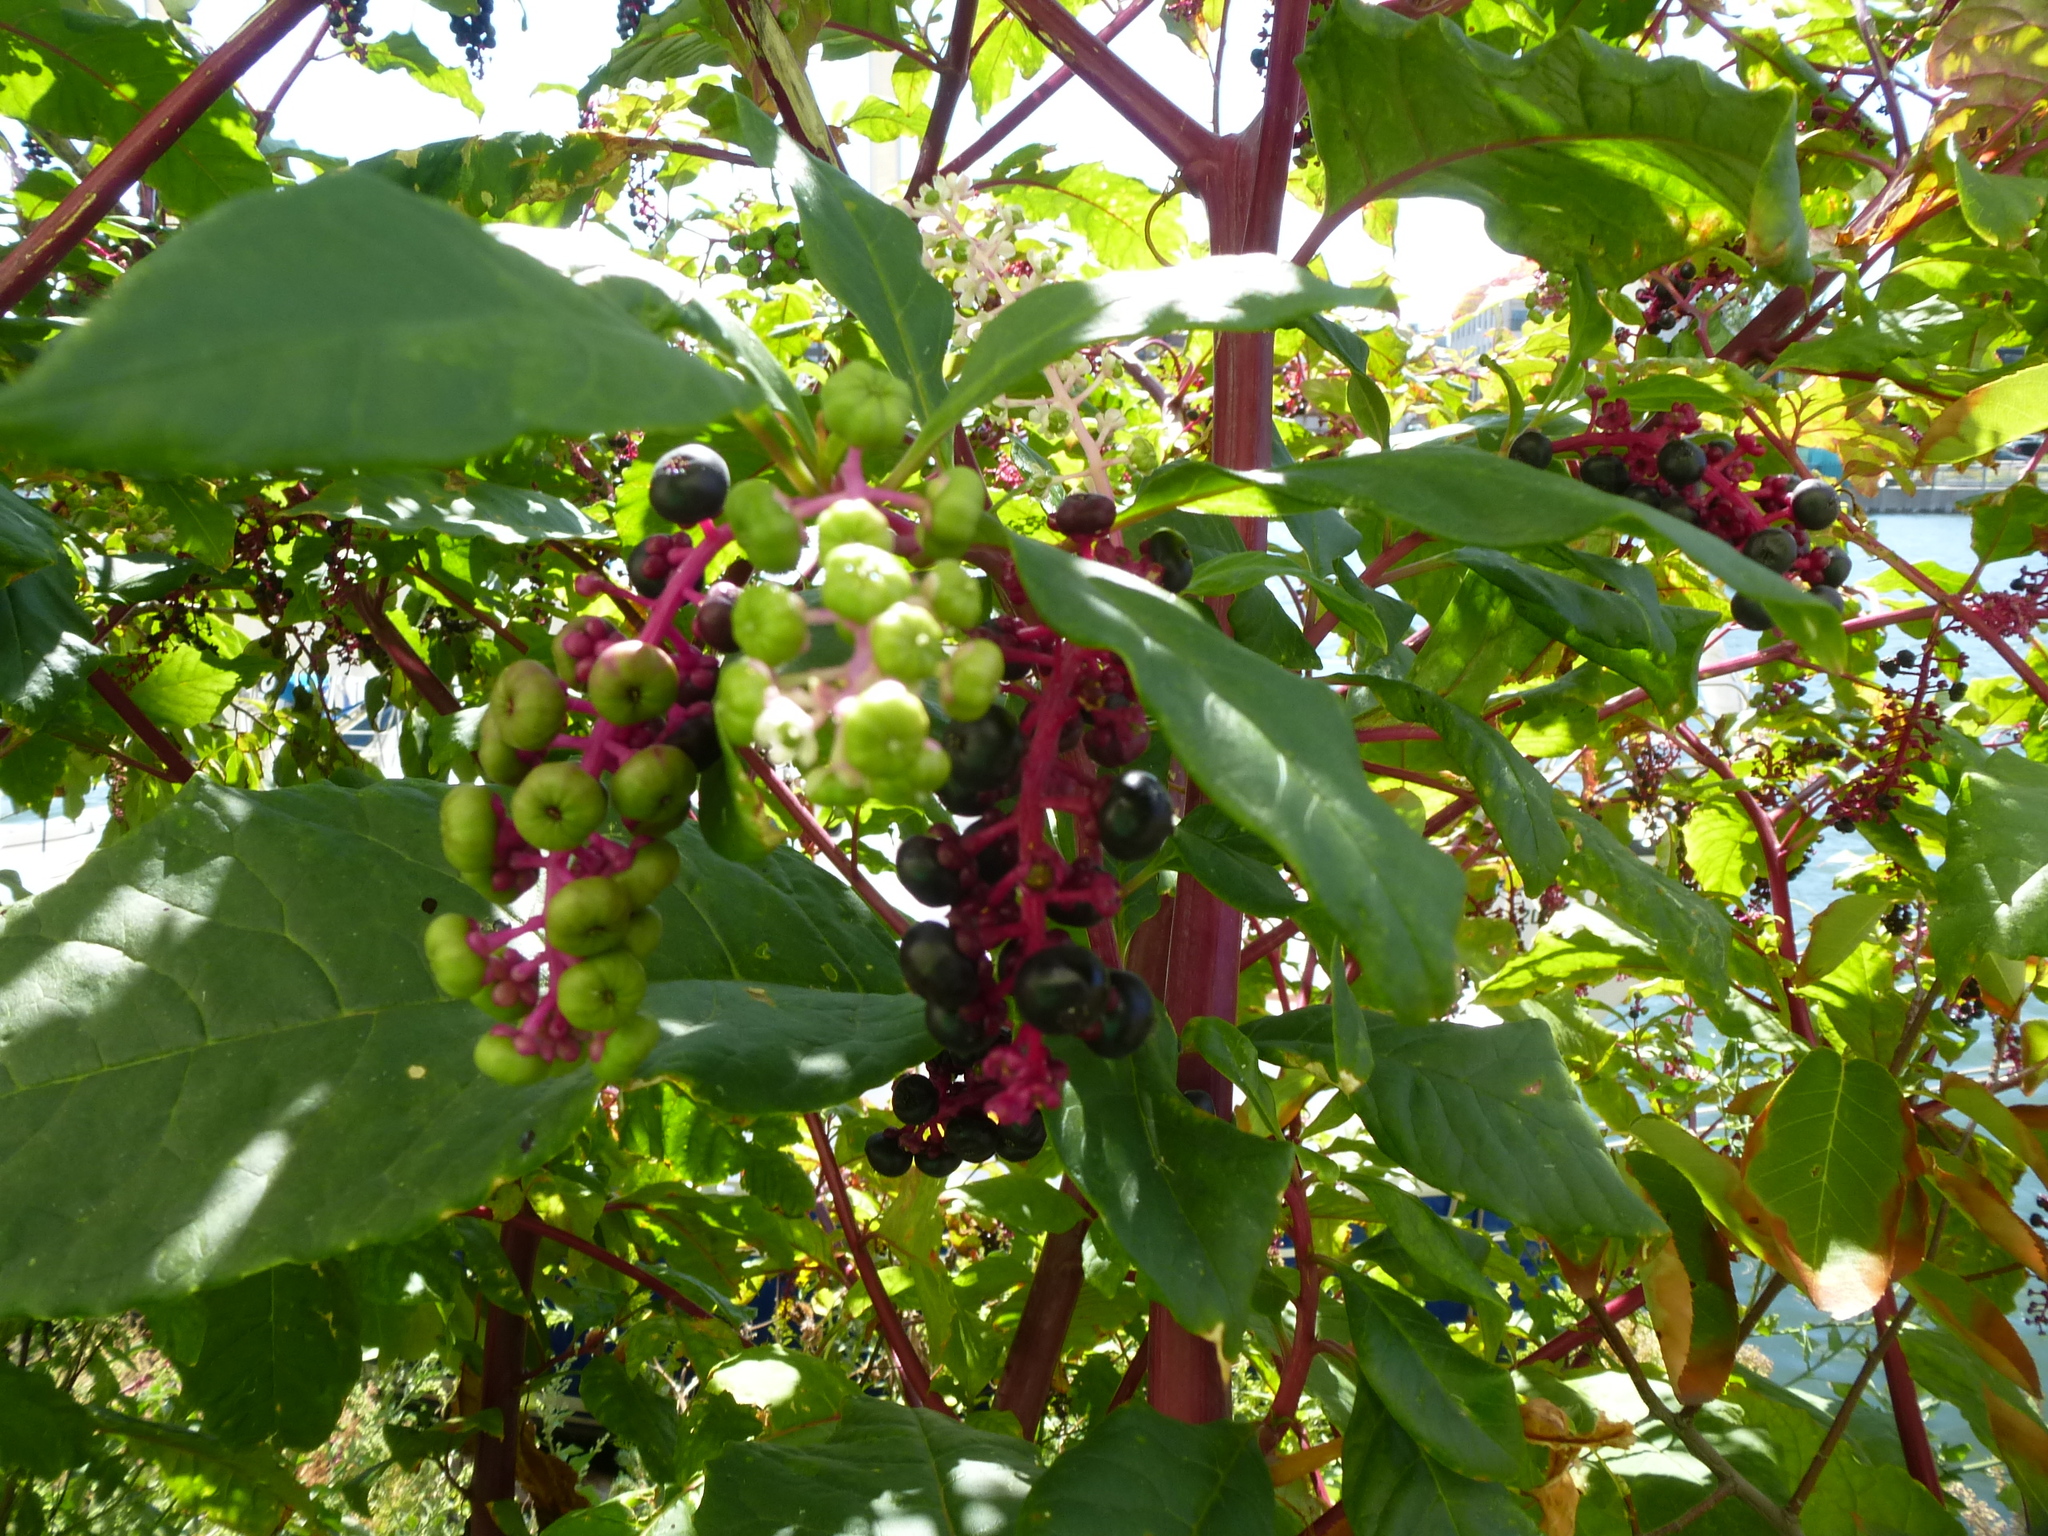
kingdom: Plantae
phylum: Tracheophyta
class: Magnoliopsida
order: Caryophyllales
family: Phytolaccaceae
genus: Phytolacca
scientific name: Phytolacca americana
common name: American pokeweed
